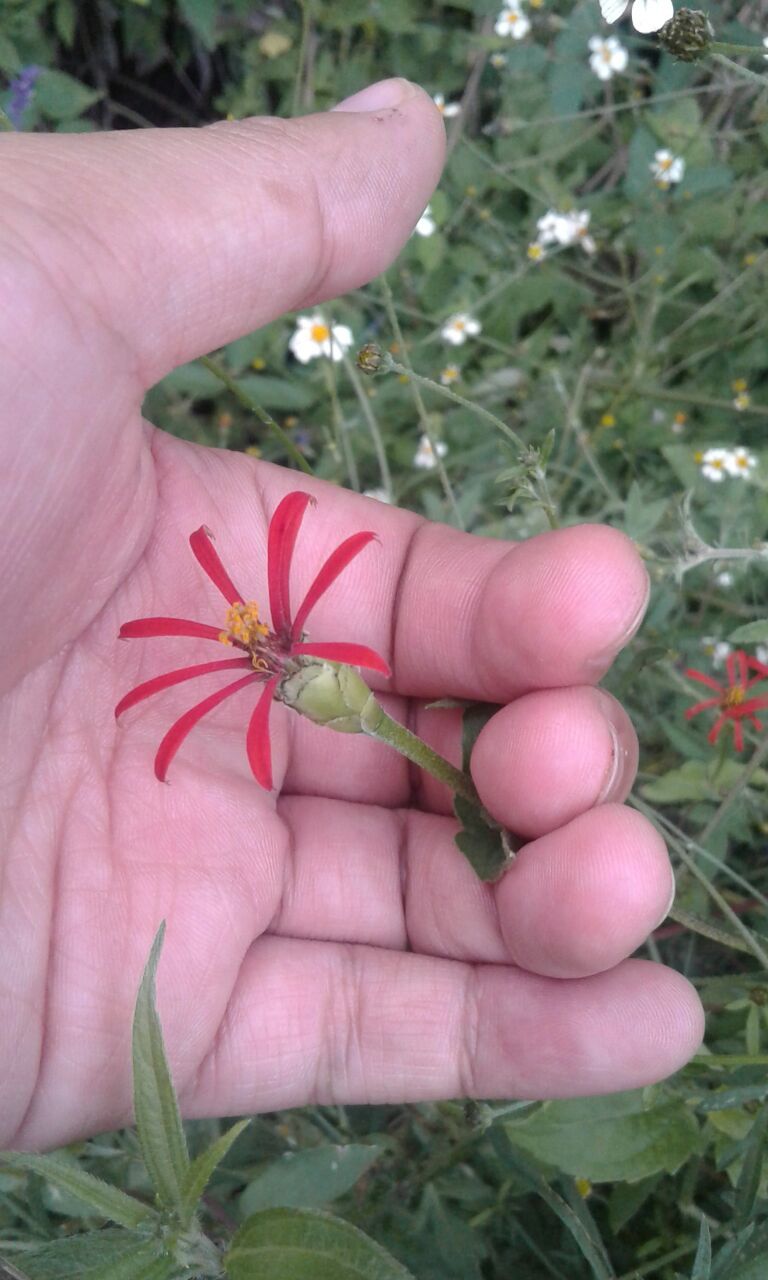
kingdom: Plantae
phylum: Tracheophyta
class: Magnoliopsida
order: Asterales
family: Asteraceae
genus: Zinnia
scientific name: Zinnia peruviana
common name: Peruvian zinnia
